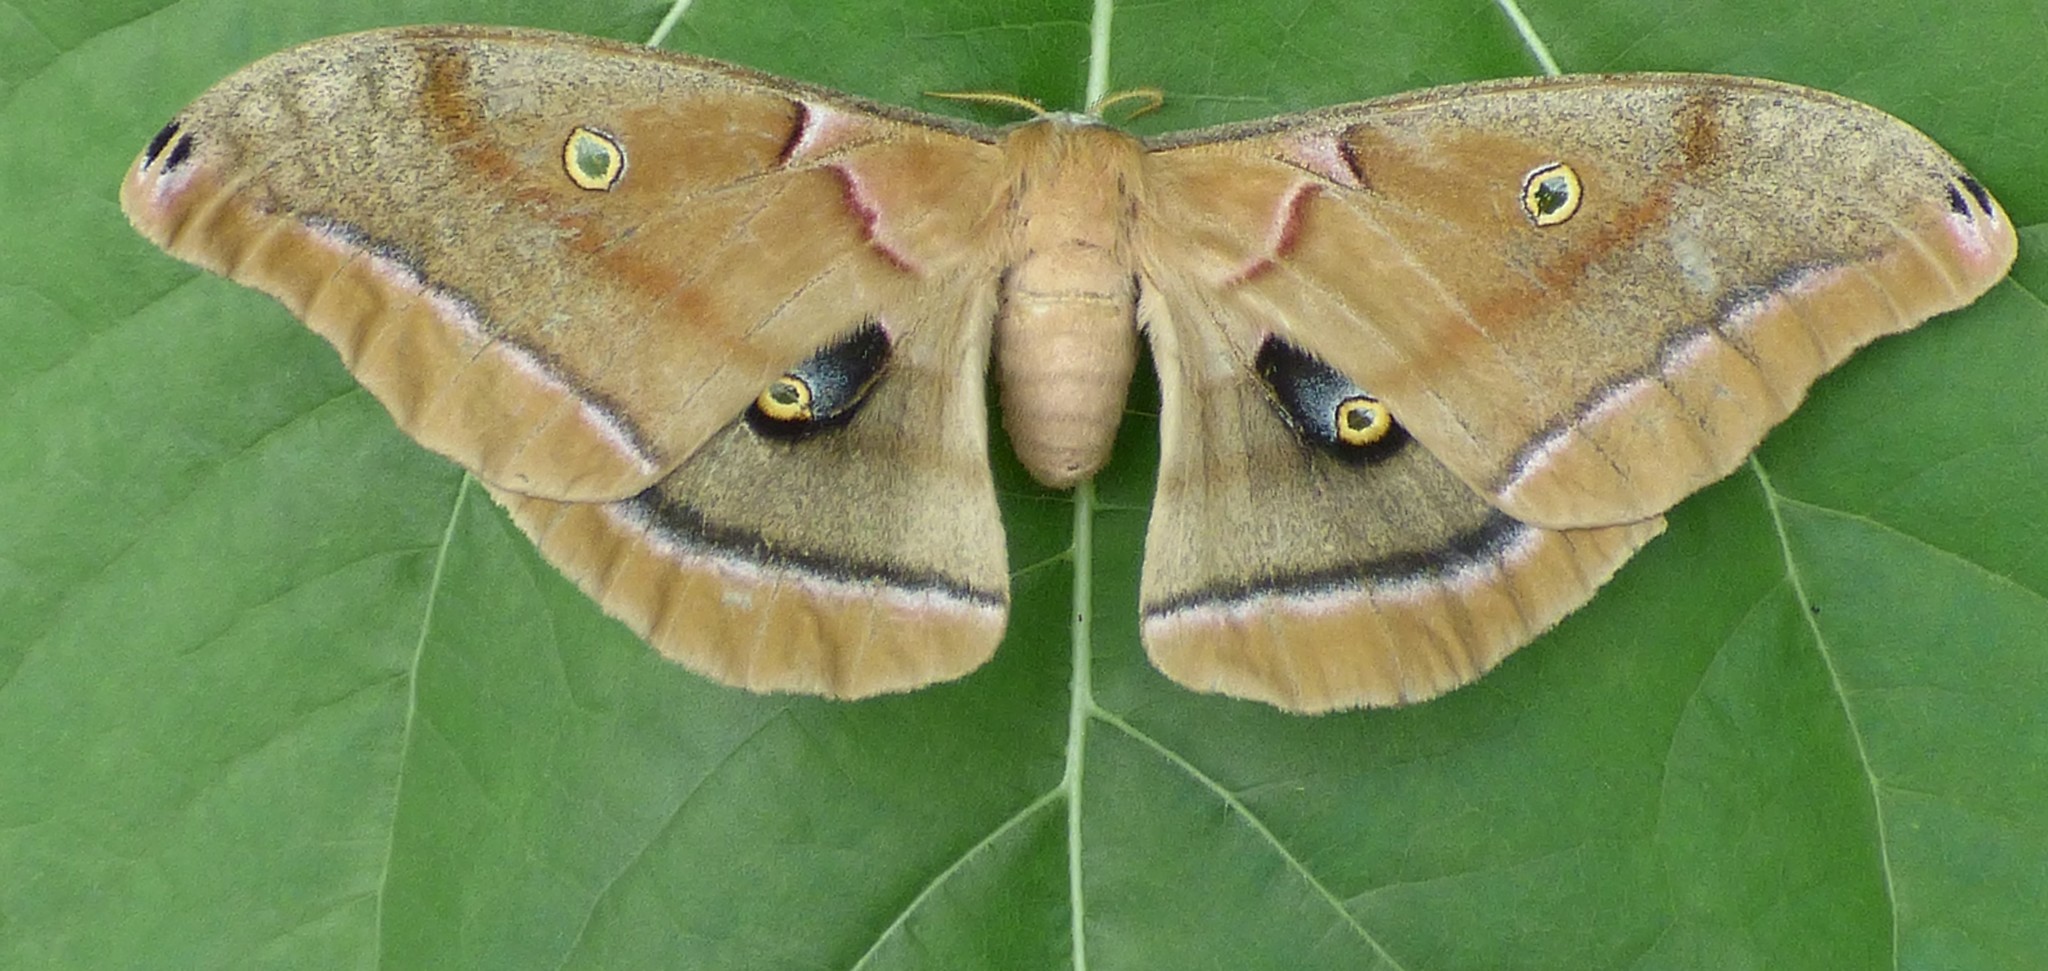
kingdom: Animalia
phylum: Arthropoda
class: Insecta
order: Lepidoptera
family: Saturniidae
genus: Antheraea
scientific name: Antheraea polyphemus
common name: Polyphemus moth
